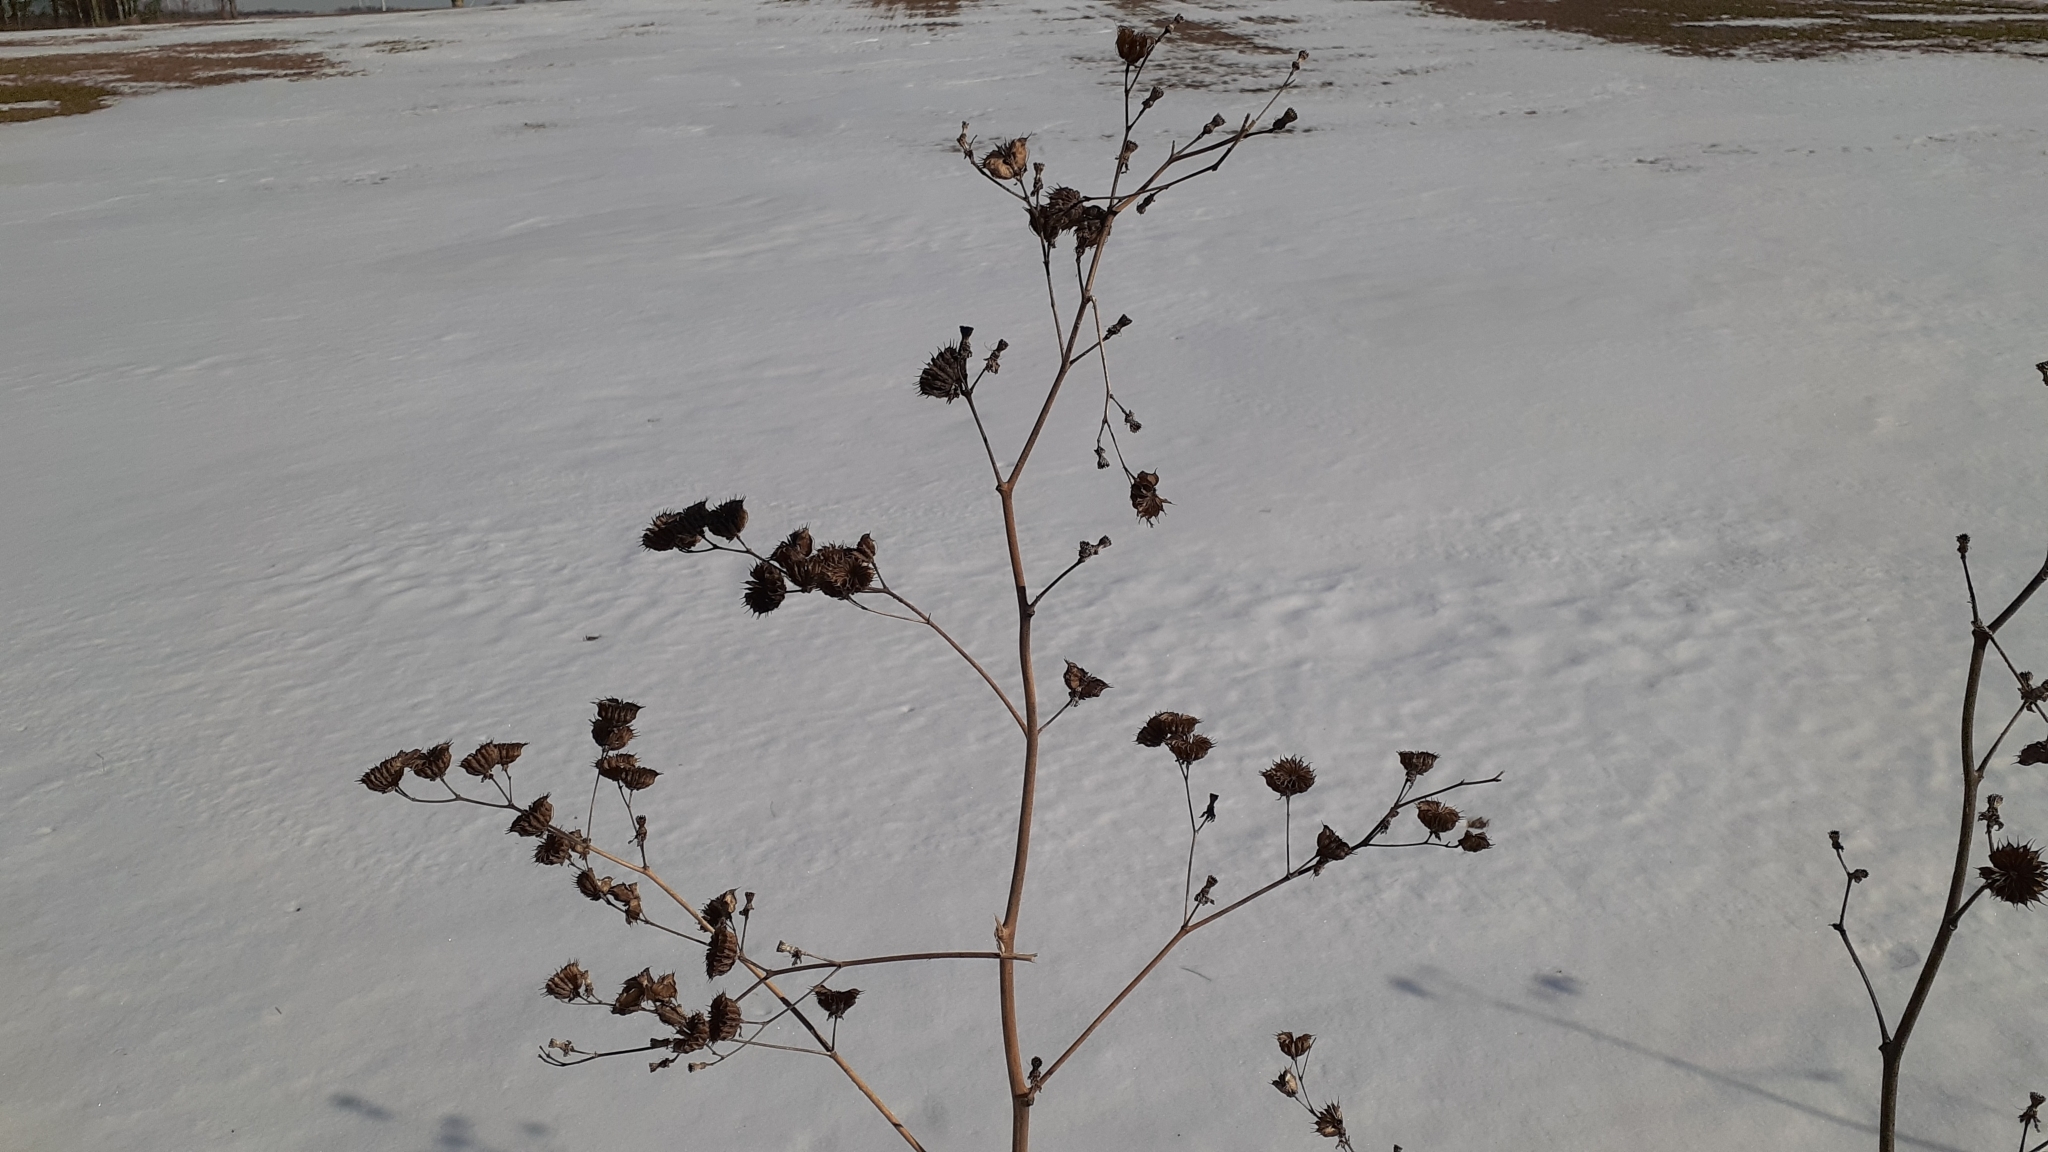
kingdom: Plantae
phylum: Tracheophyta
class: Magnoliopsida
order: Malvales
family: Malvaceae
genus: Abutilon
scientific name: Abutilon theophrasti
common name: Velvetleaf
